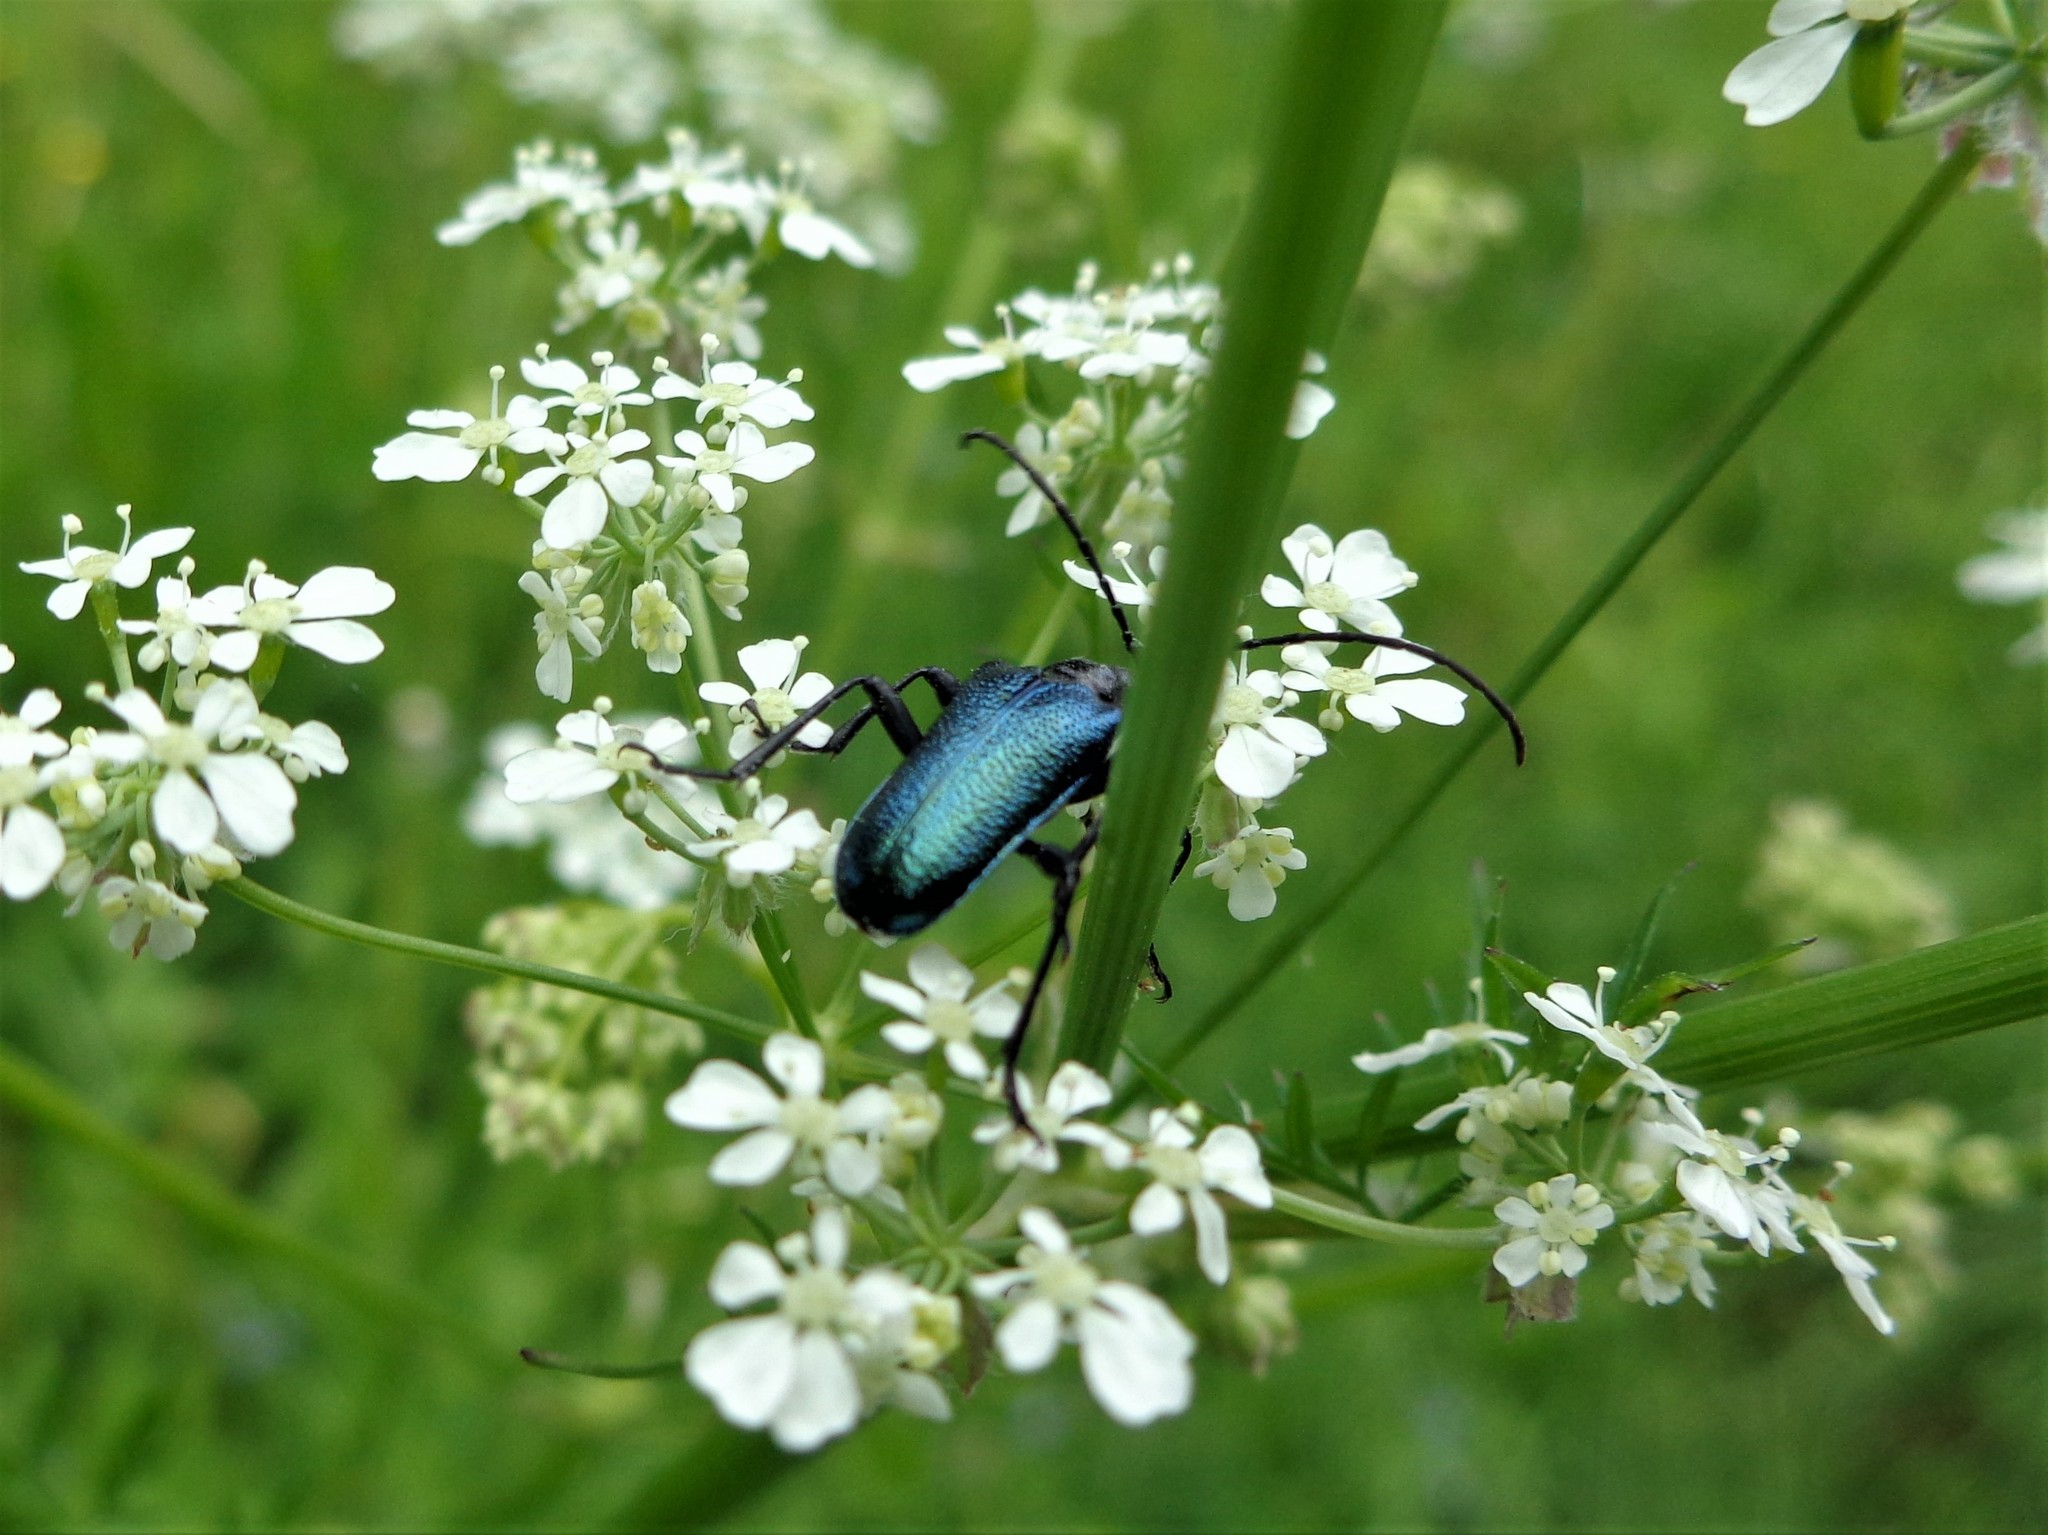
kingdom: Animalia
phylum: Arthropoda
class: Insecta
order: Coleoptera
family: Cerambycidae
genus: Gaurotes
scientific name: Gaurotes virginea
